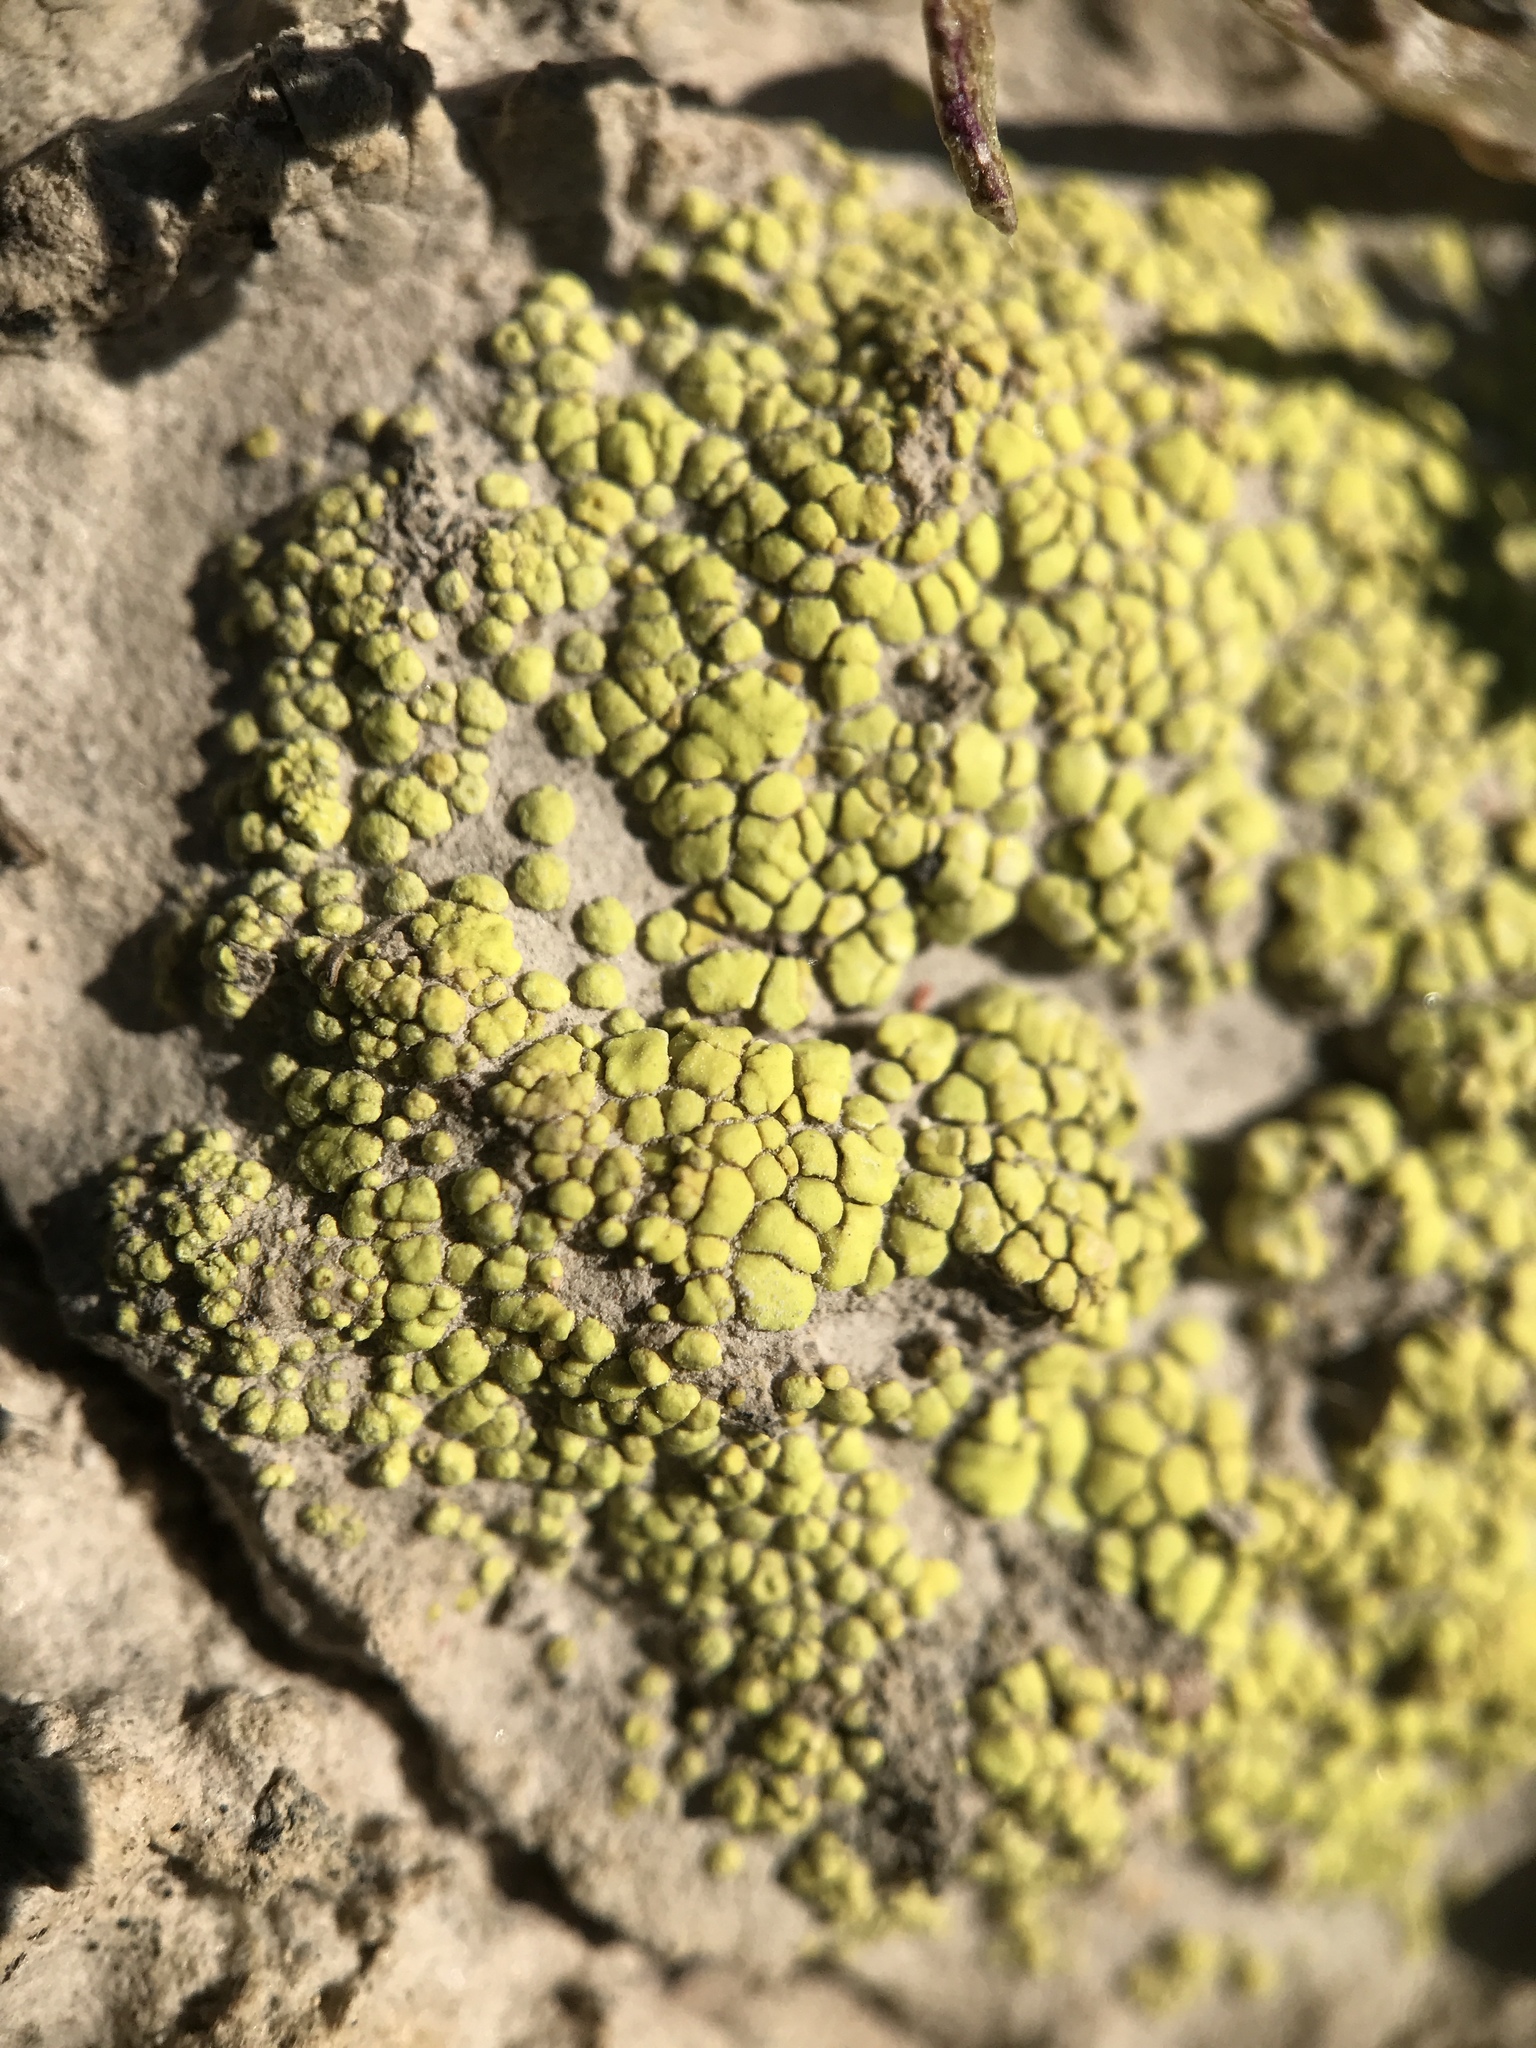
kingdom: Fungi
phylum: Ascomycota
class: Lecanoromycetes
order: Acarosporales
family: Acarosporaceae
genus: Acarospora
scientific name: Acarospora schleicheri
